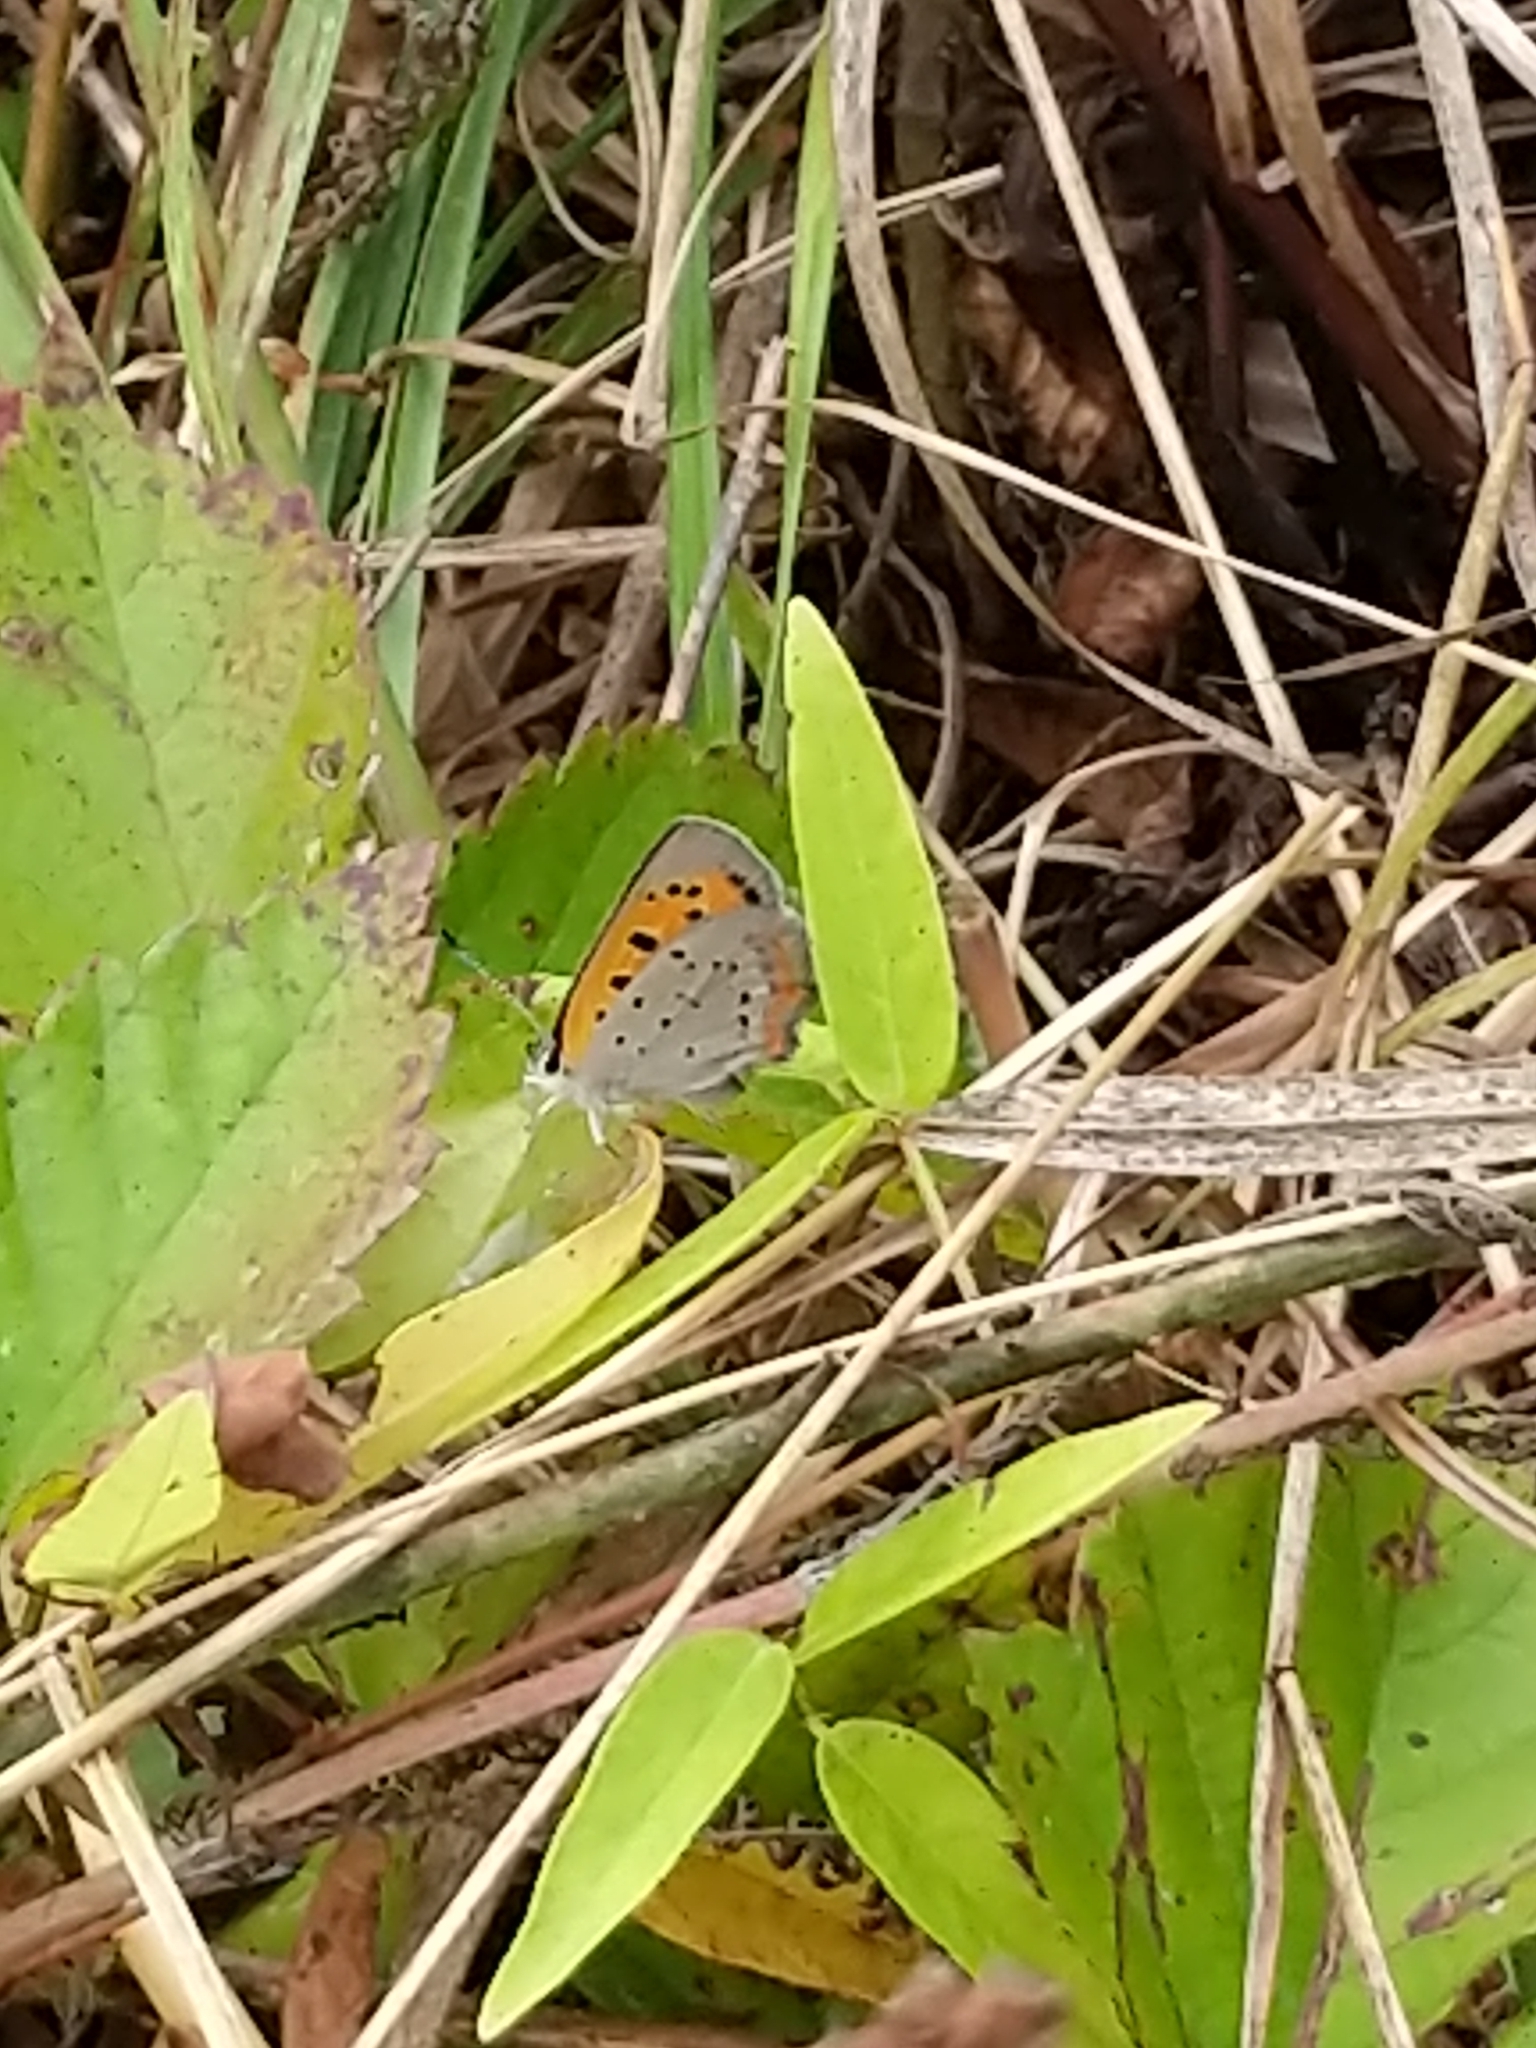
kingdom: Animalia
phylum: Arthropoda
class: Insecta
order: Lepidoptera
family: Lycaenidae
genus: Lycaena
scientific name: Lycaena hypophlaeas
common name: American copper
